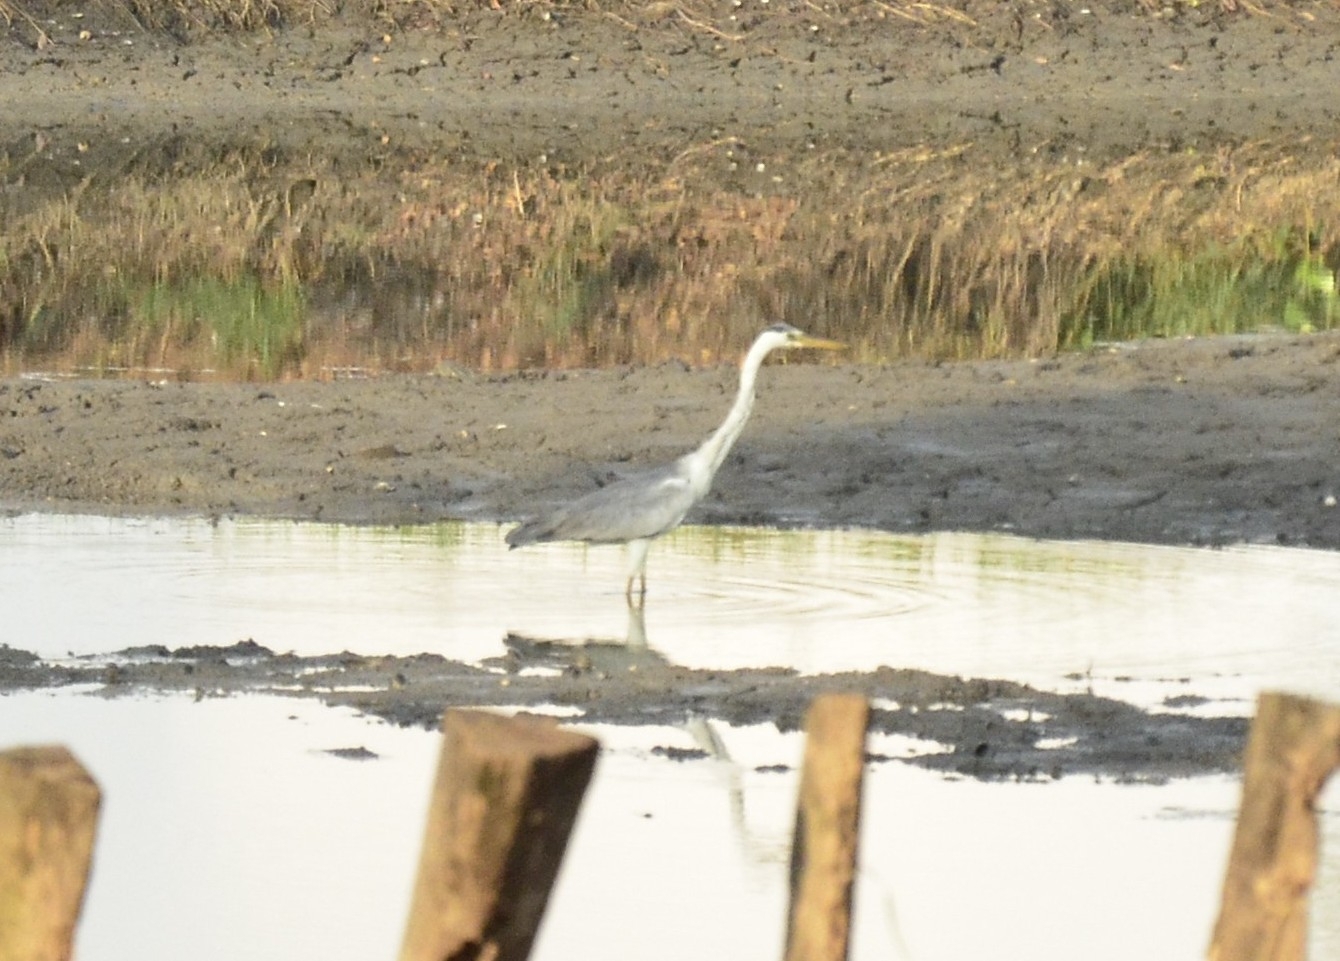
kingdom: Animalia
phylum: Chordata
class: Aves
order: Pelecaniformes
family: Ardeidae
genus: Ardea
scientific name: Ardea cinerea
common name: Grey heron
